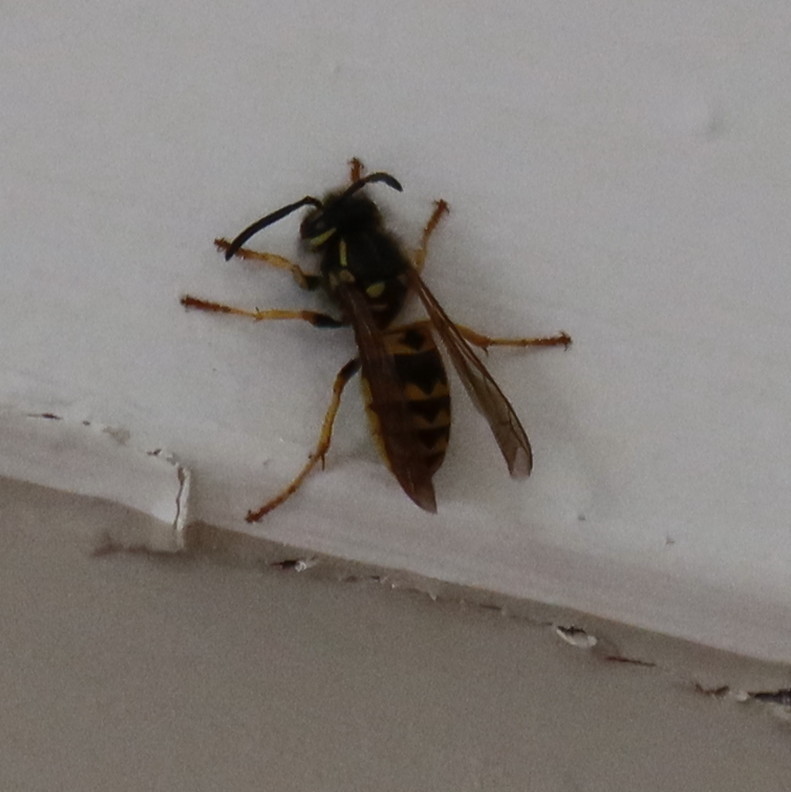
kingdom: Animalia
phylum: Arthropoda
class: Insecta
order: Hymenoptera
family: Vespidae
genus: Vespula
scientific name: Vespula germanica
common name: German wasp
